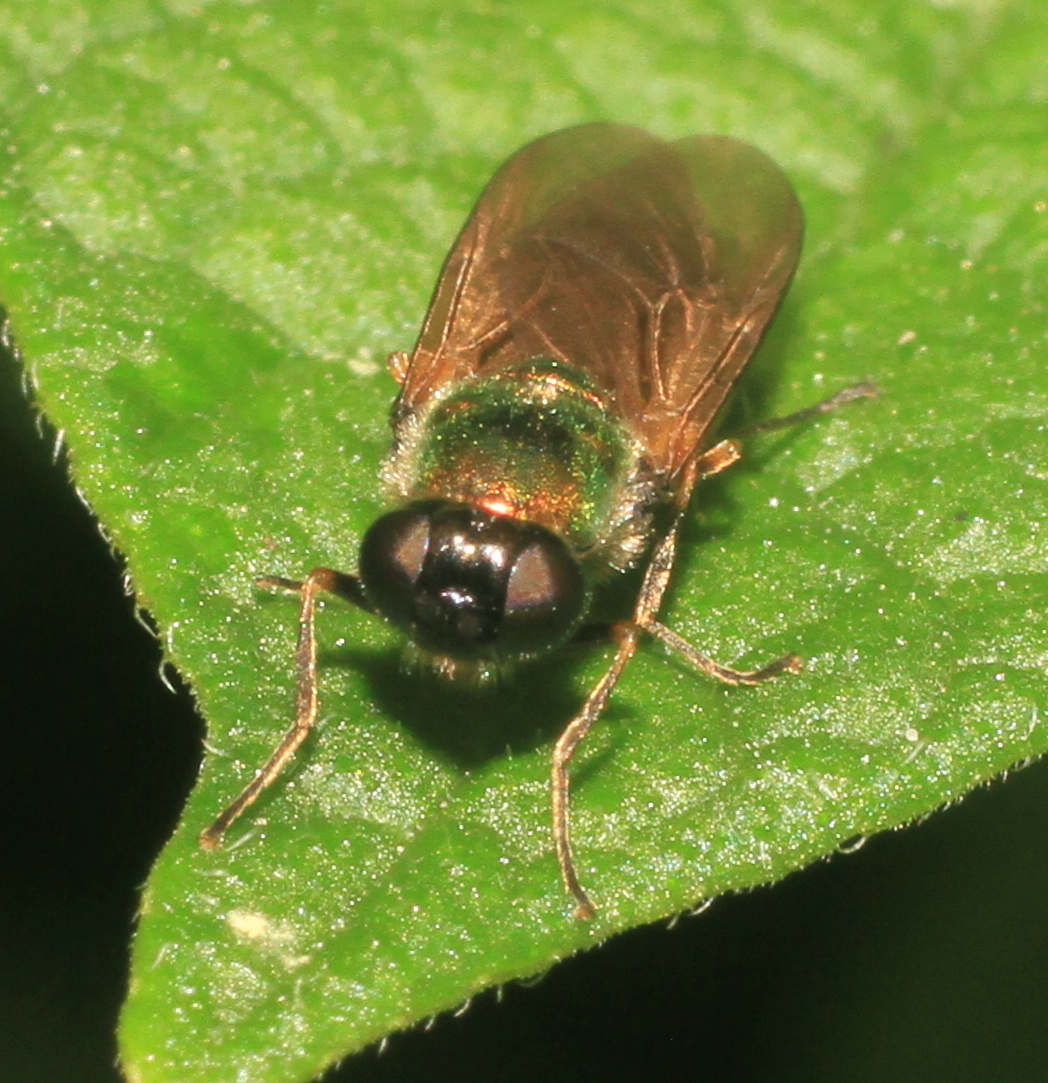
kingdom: Animalia
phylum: Arthropoda
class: Insecta
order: Diptera
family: Stratiomyidae
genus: Chloromyia
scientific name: Chloromyia formosa
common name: Soldier fly
